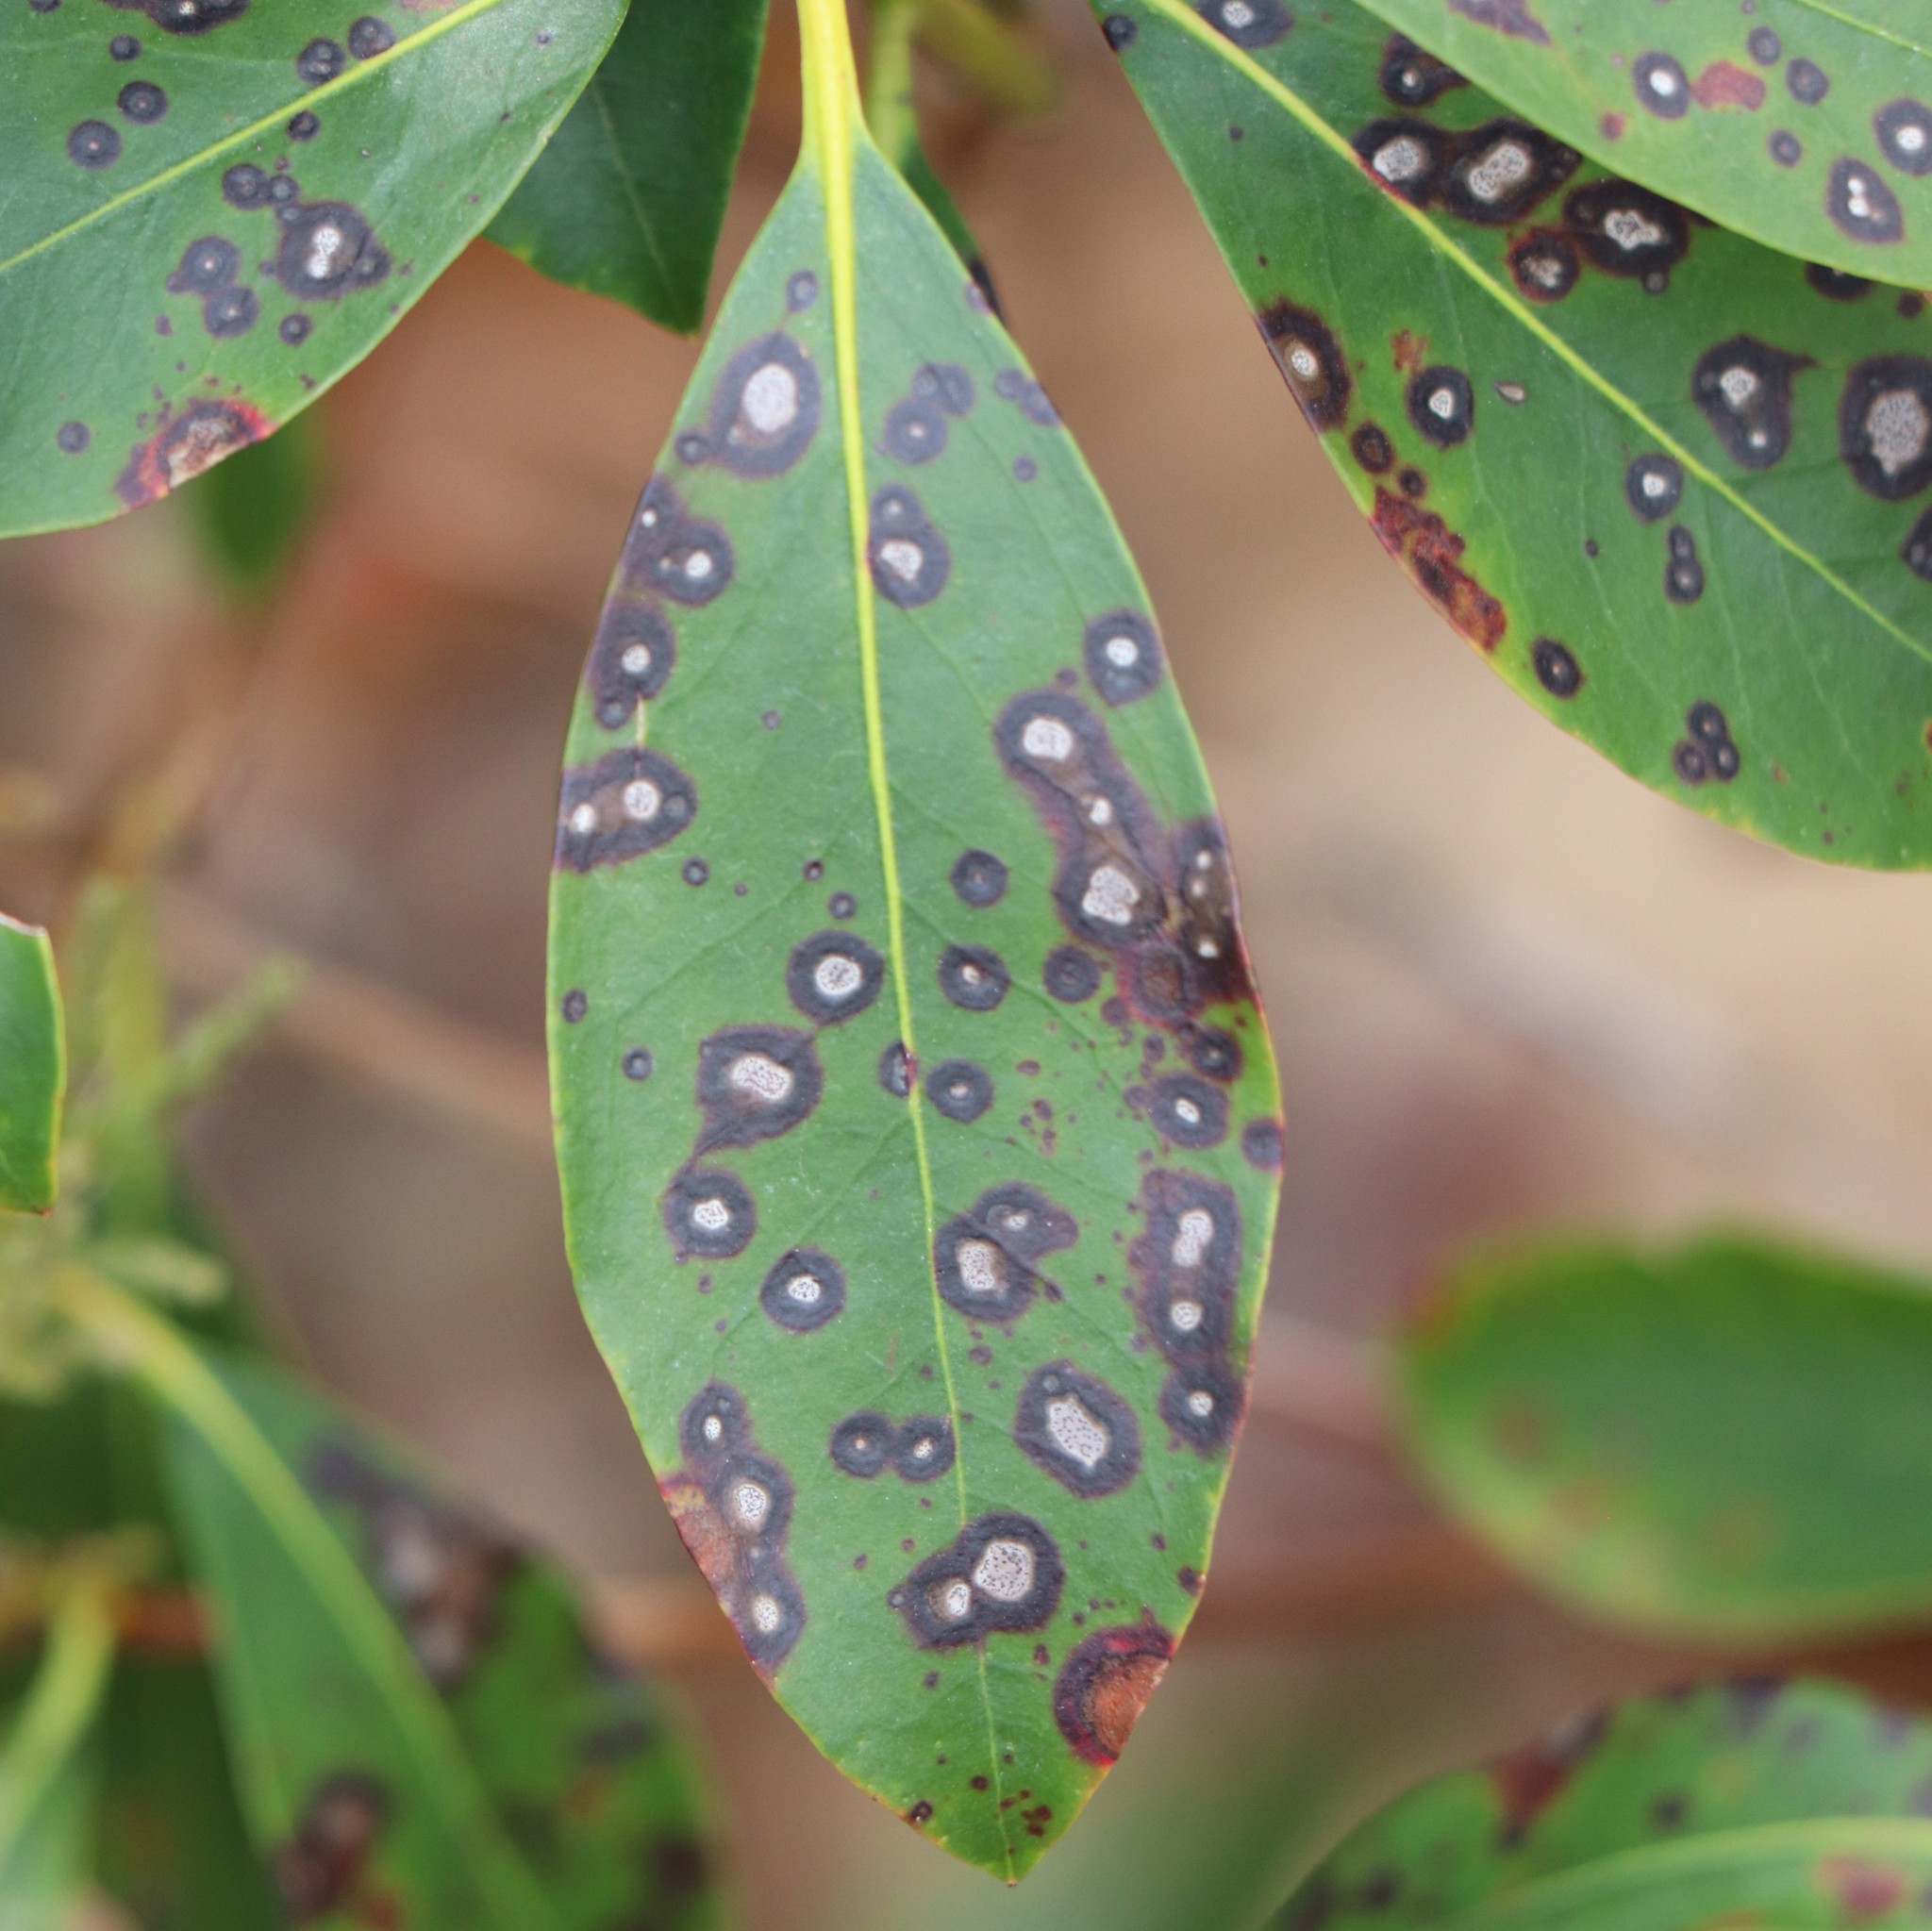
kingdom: Fungi
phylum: Ascomycota
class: Dothideomycetes
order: Mycosphaerellales
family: Mycosphaerellaceae
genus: Mycosphaerella
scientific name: Mycosphaerella colorata
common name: Mountain laurel leaf spot
